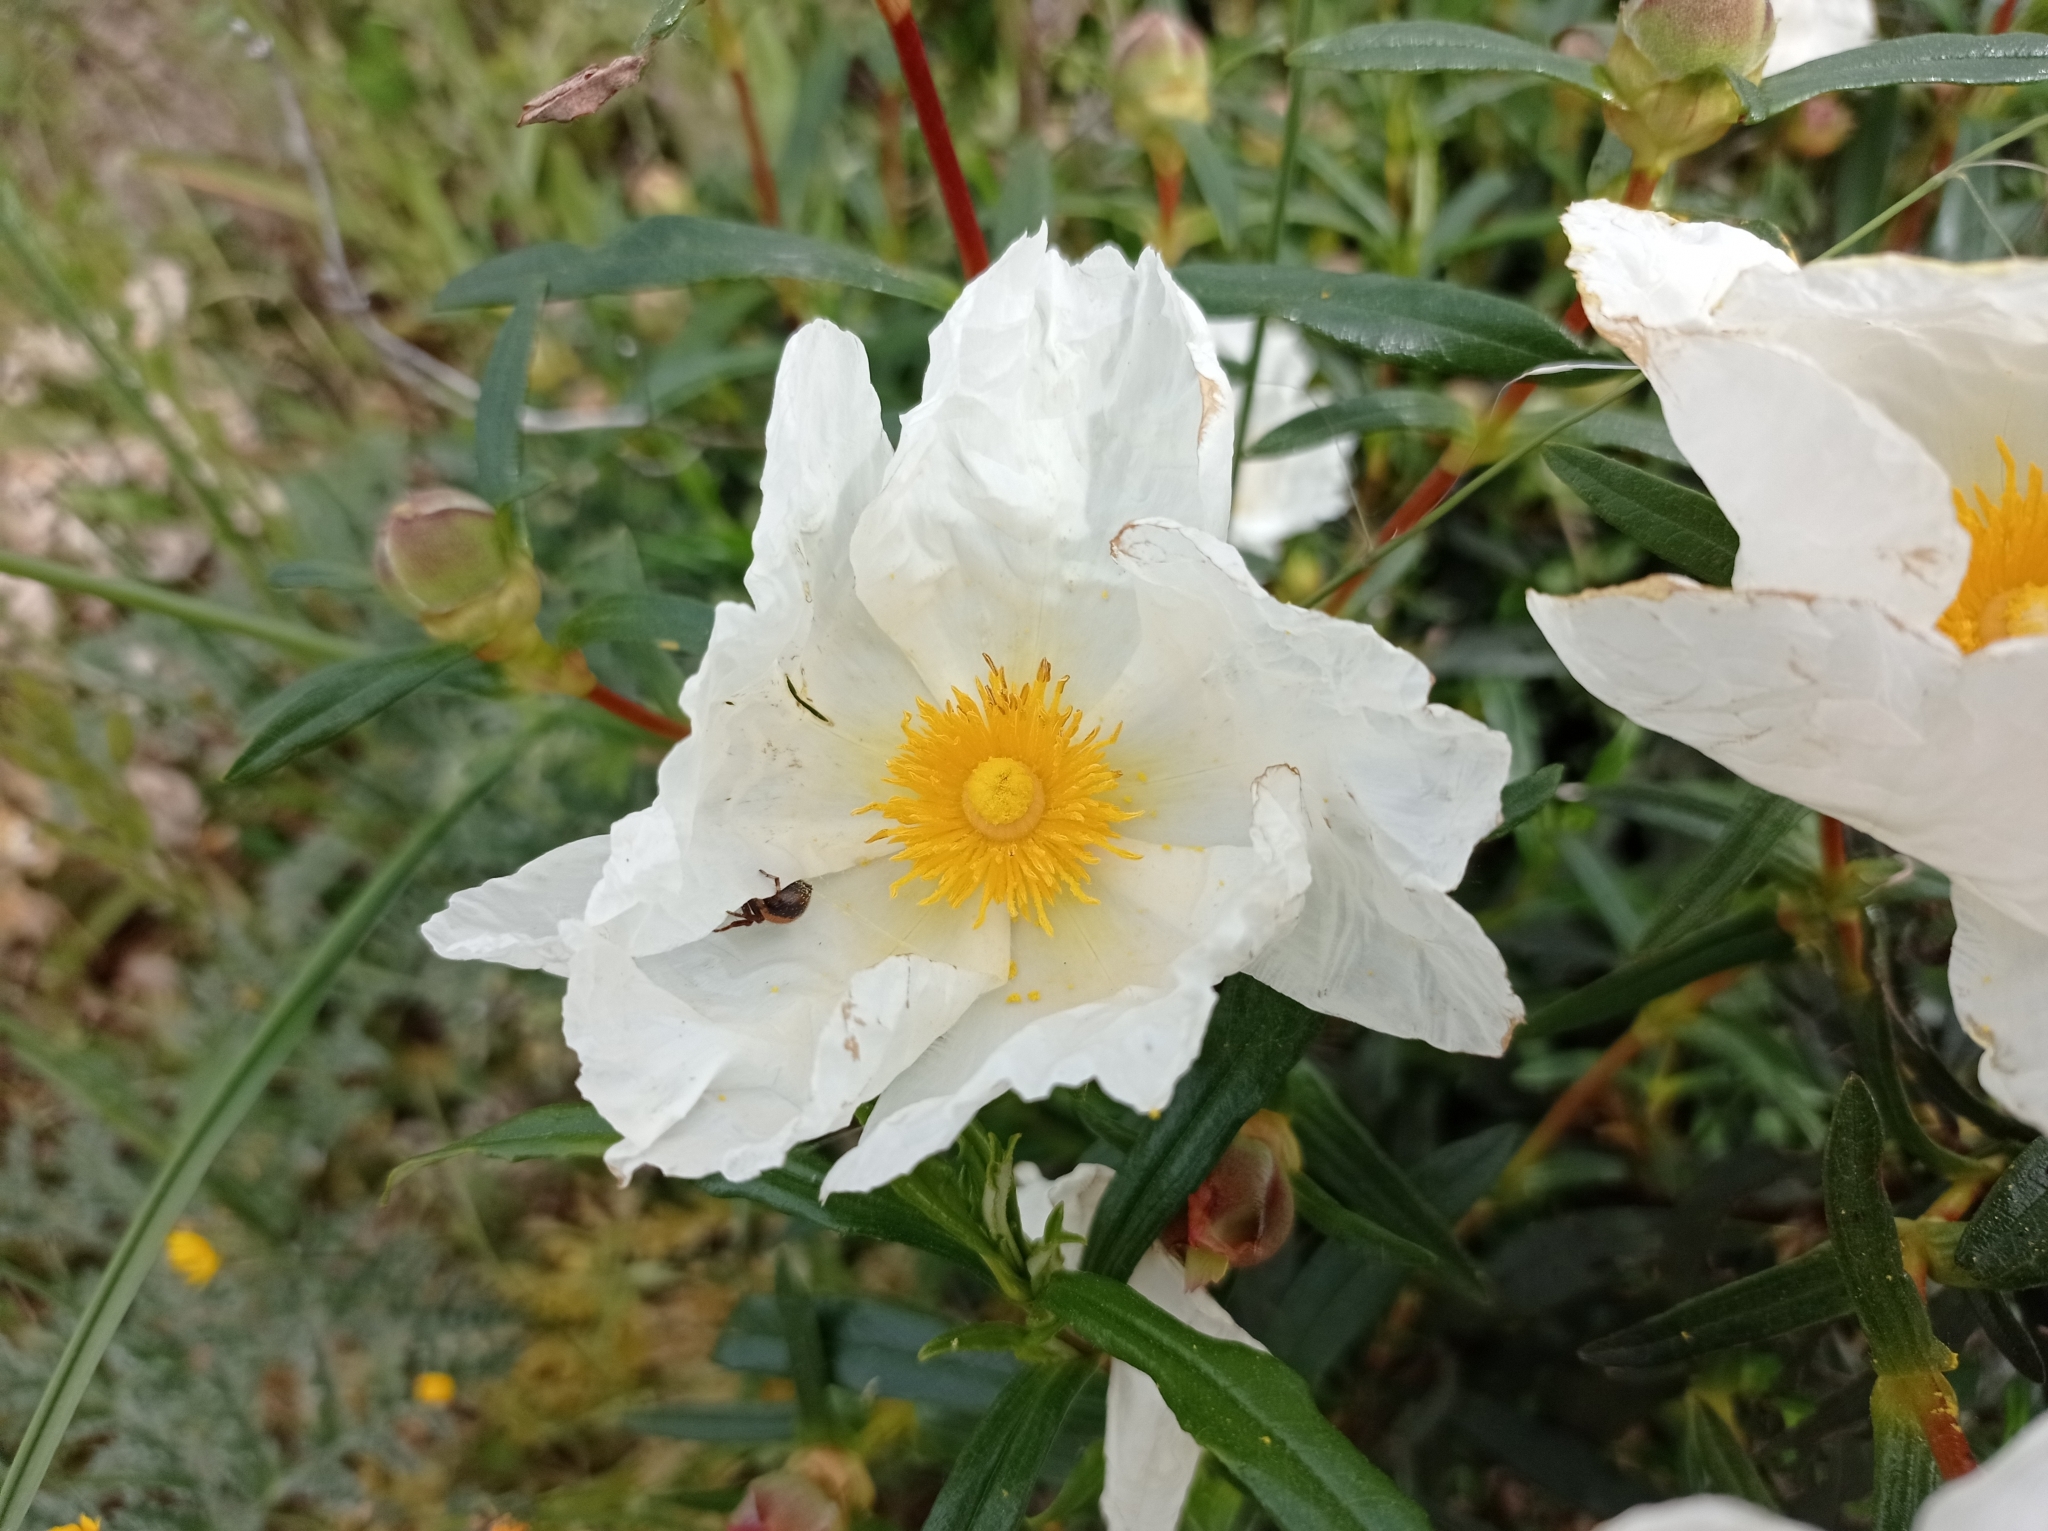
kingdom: Plantae
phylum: Tracheophyta
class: Magnoliopsida
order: Malvales
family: Cistaceae
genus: Cistus
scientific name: Cistus ladanifer
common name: Common gum cistus
